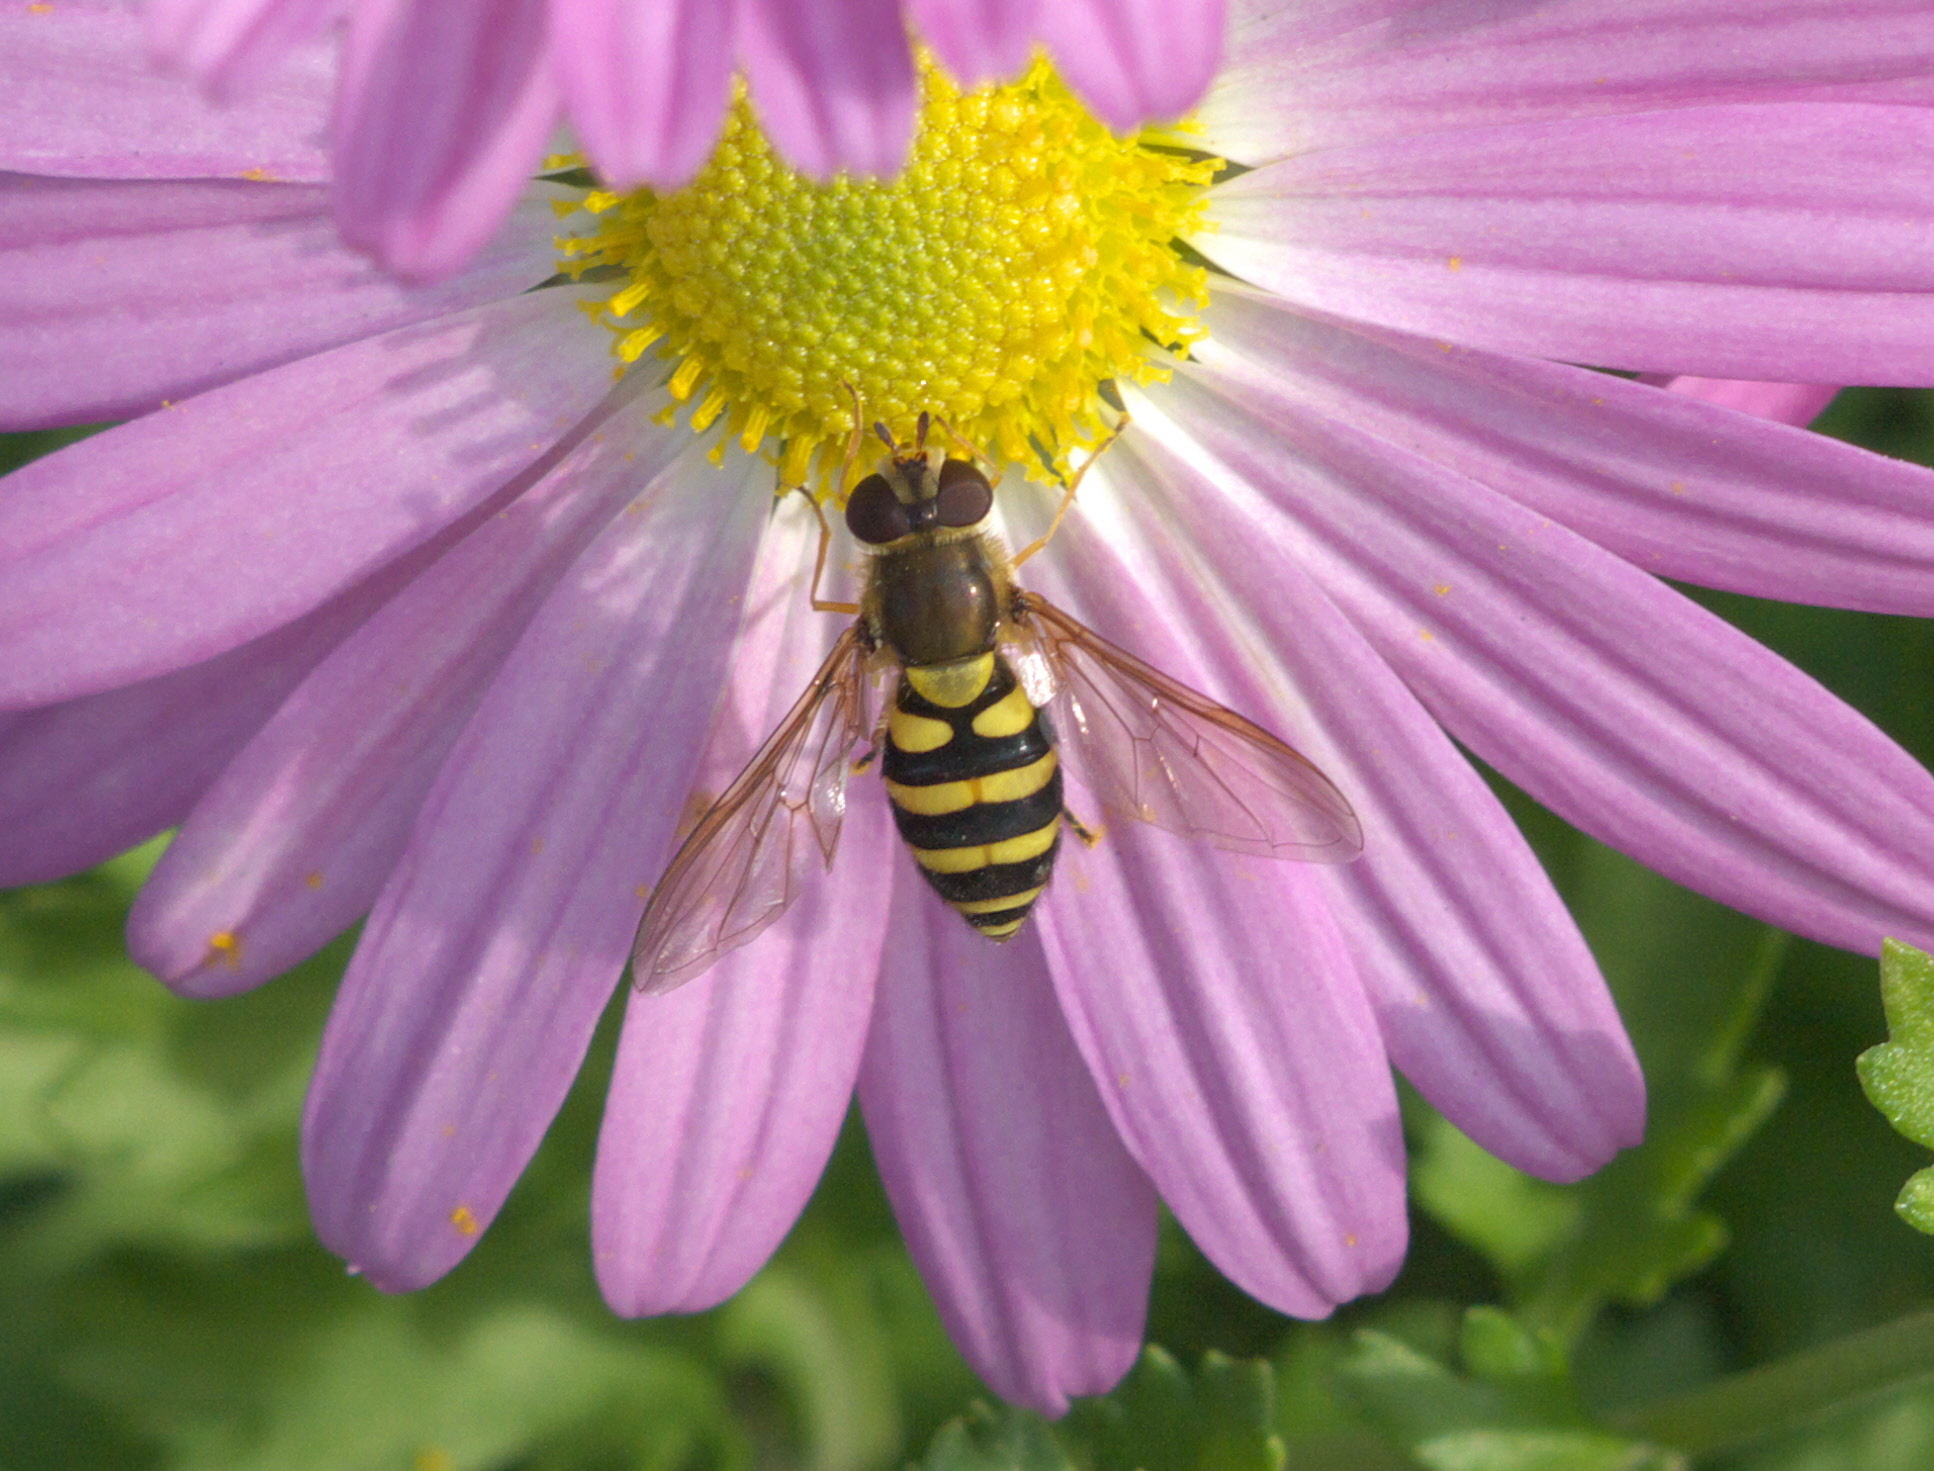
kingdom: Animalia
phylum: Arthropoda
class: Insecta
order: Diptera
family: Syrphidae
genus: Syrphus
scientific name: Syrphus
